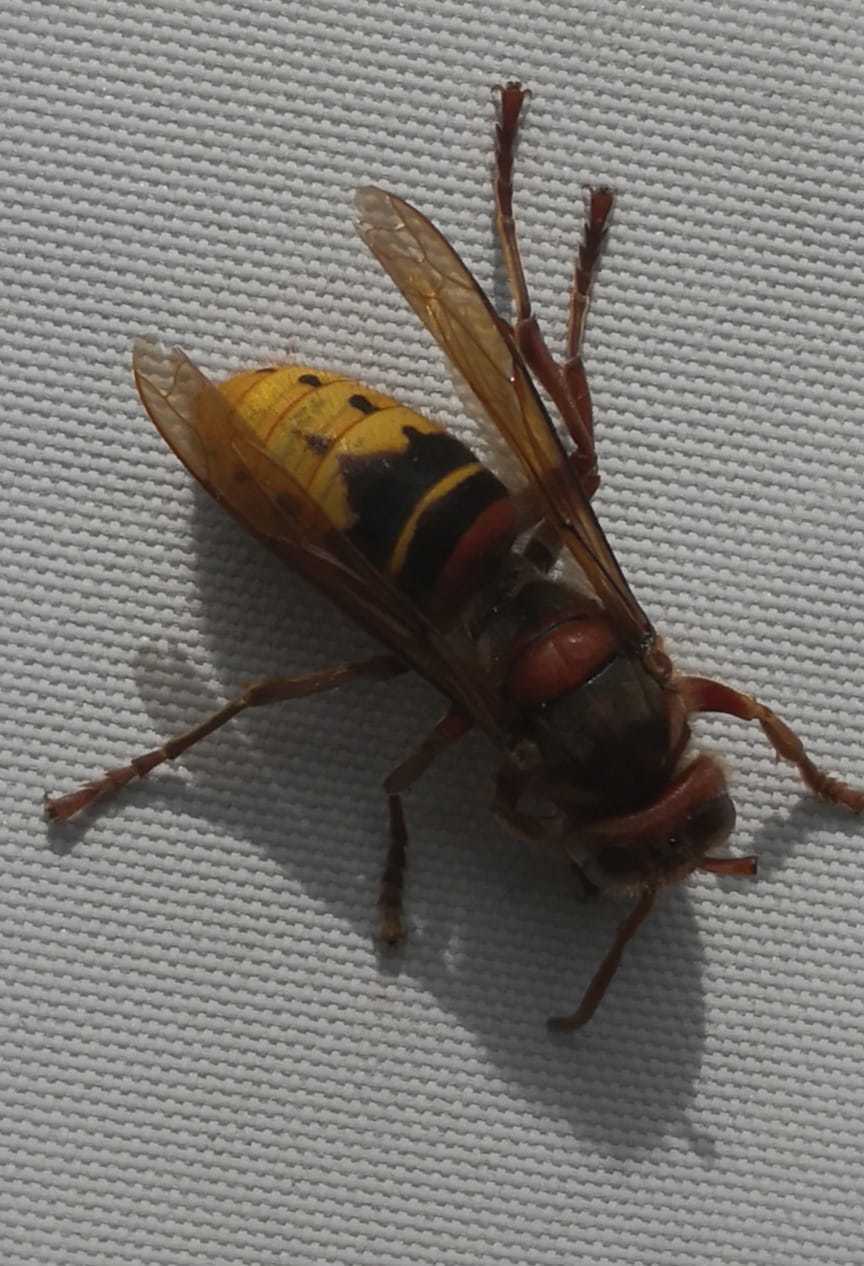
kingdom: Animalia
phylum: Arthropoda
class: Insecta
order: Hymenoptera
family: Vespidae
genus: Vespa
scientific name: Vespa crabro
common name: Hornet
